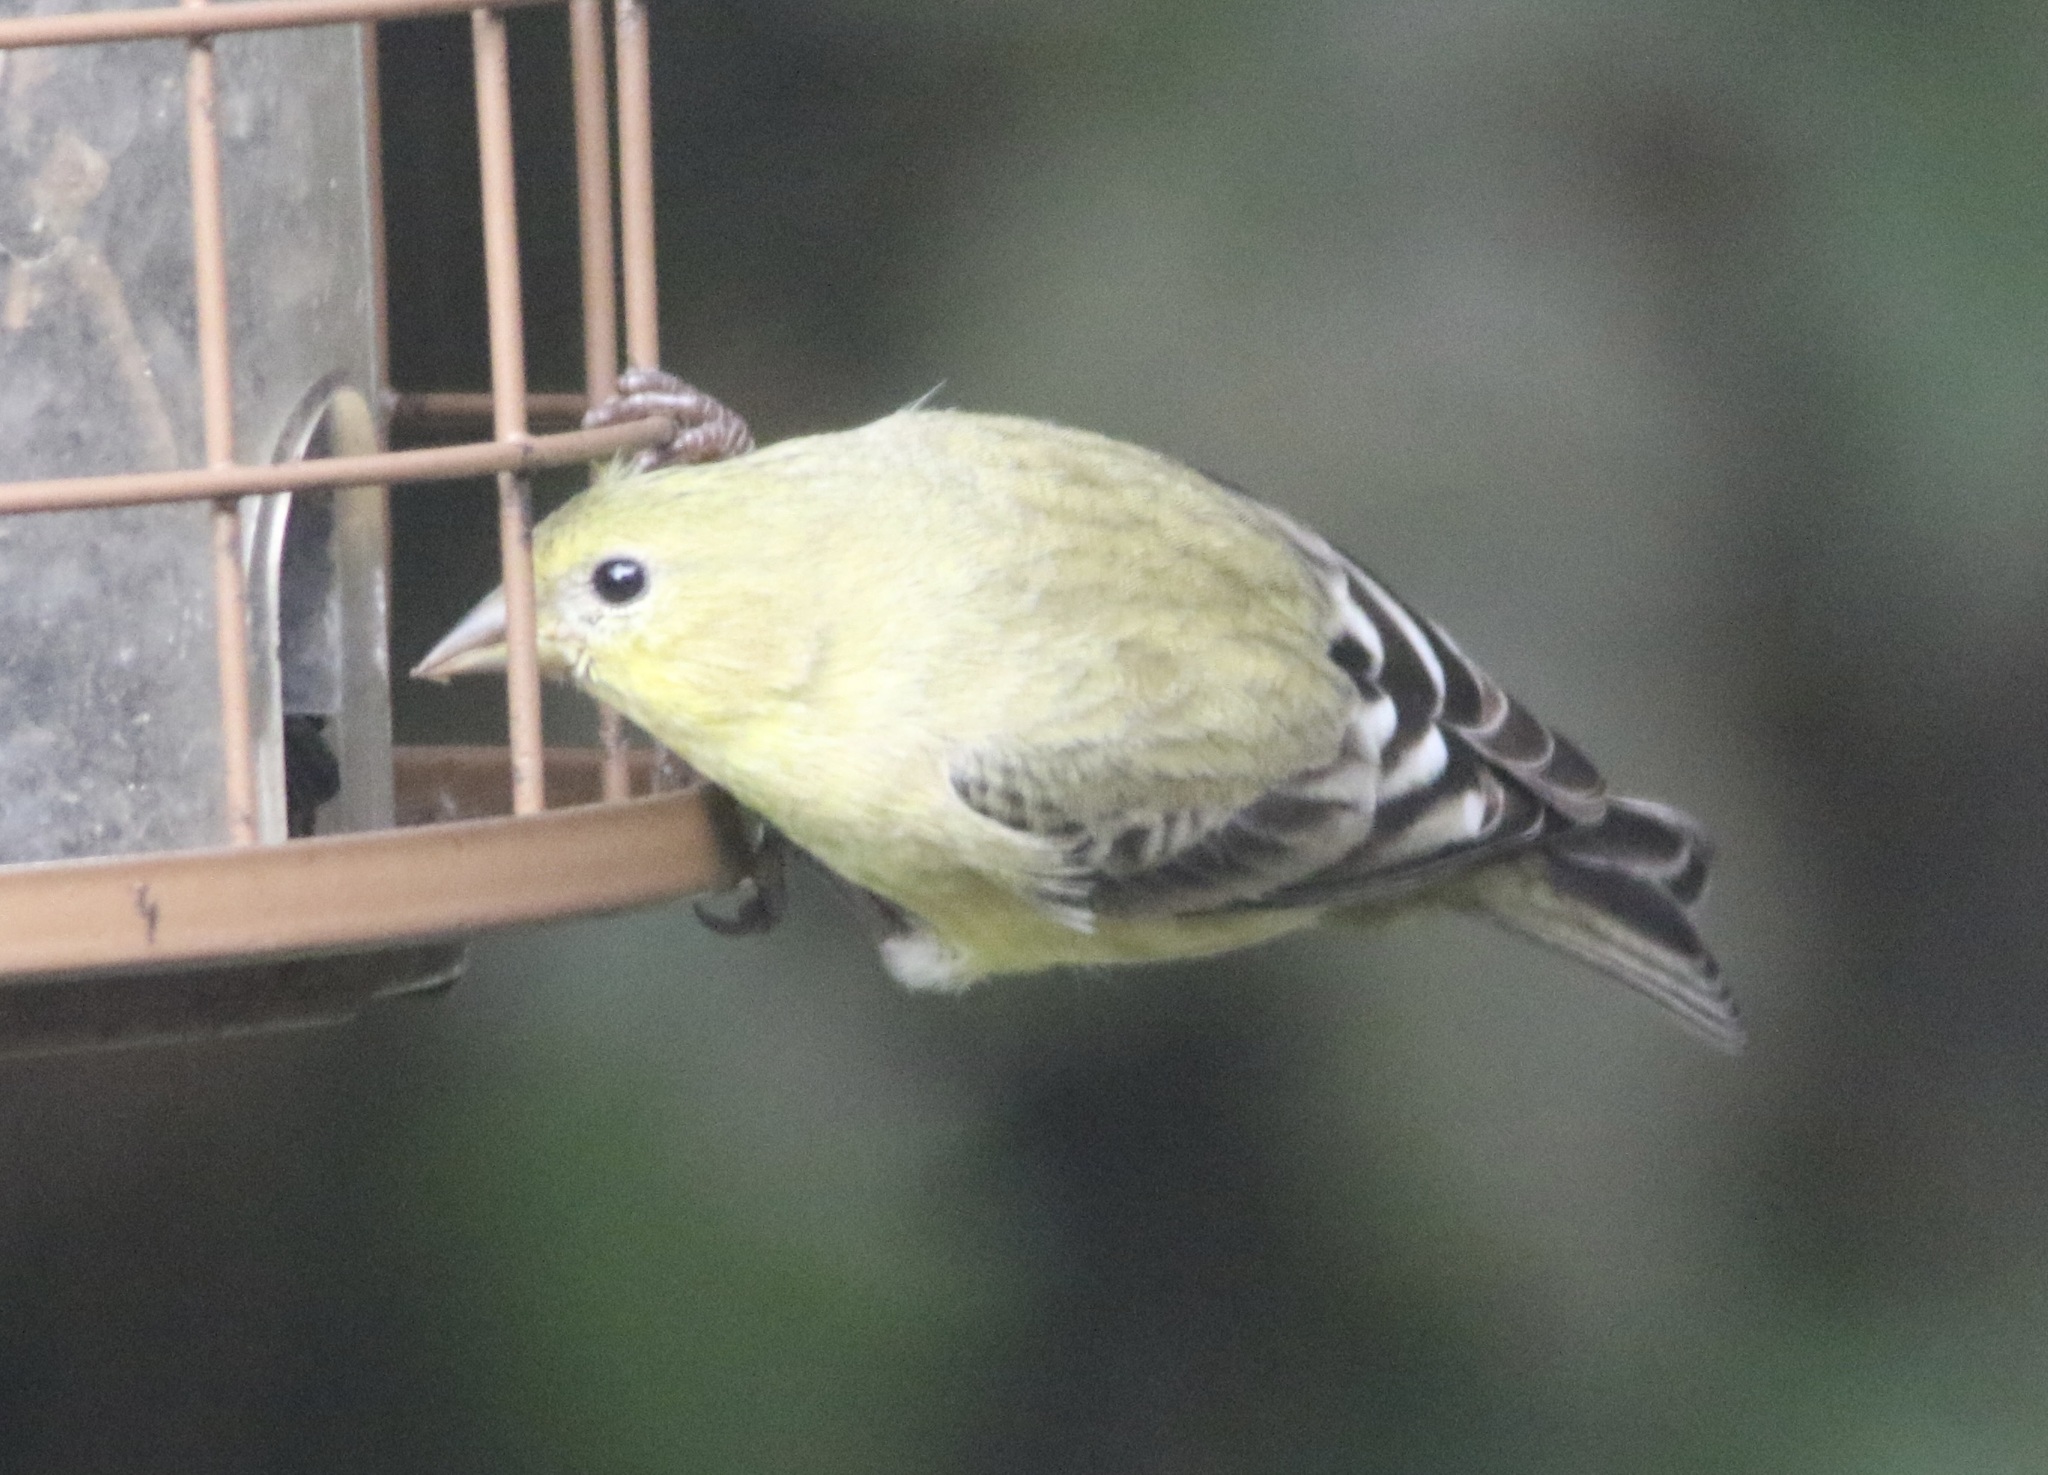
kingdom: Animalia
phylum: Chordata
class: Aves
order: Passeriformes
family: Fringillidae
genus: Spinus
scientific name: Spinus psaltria
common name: Lesser goldfinch
